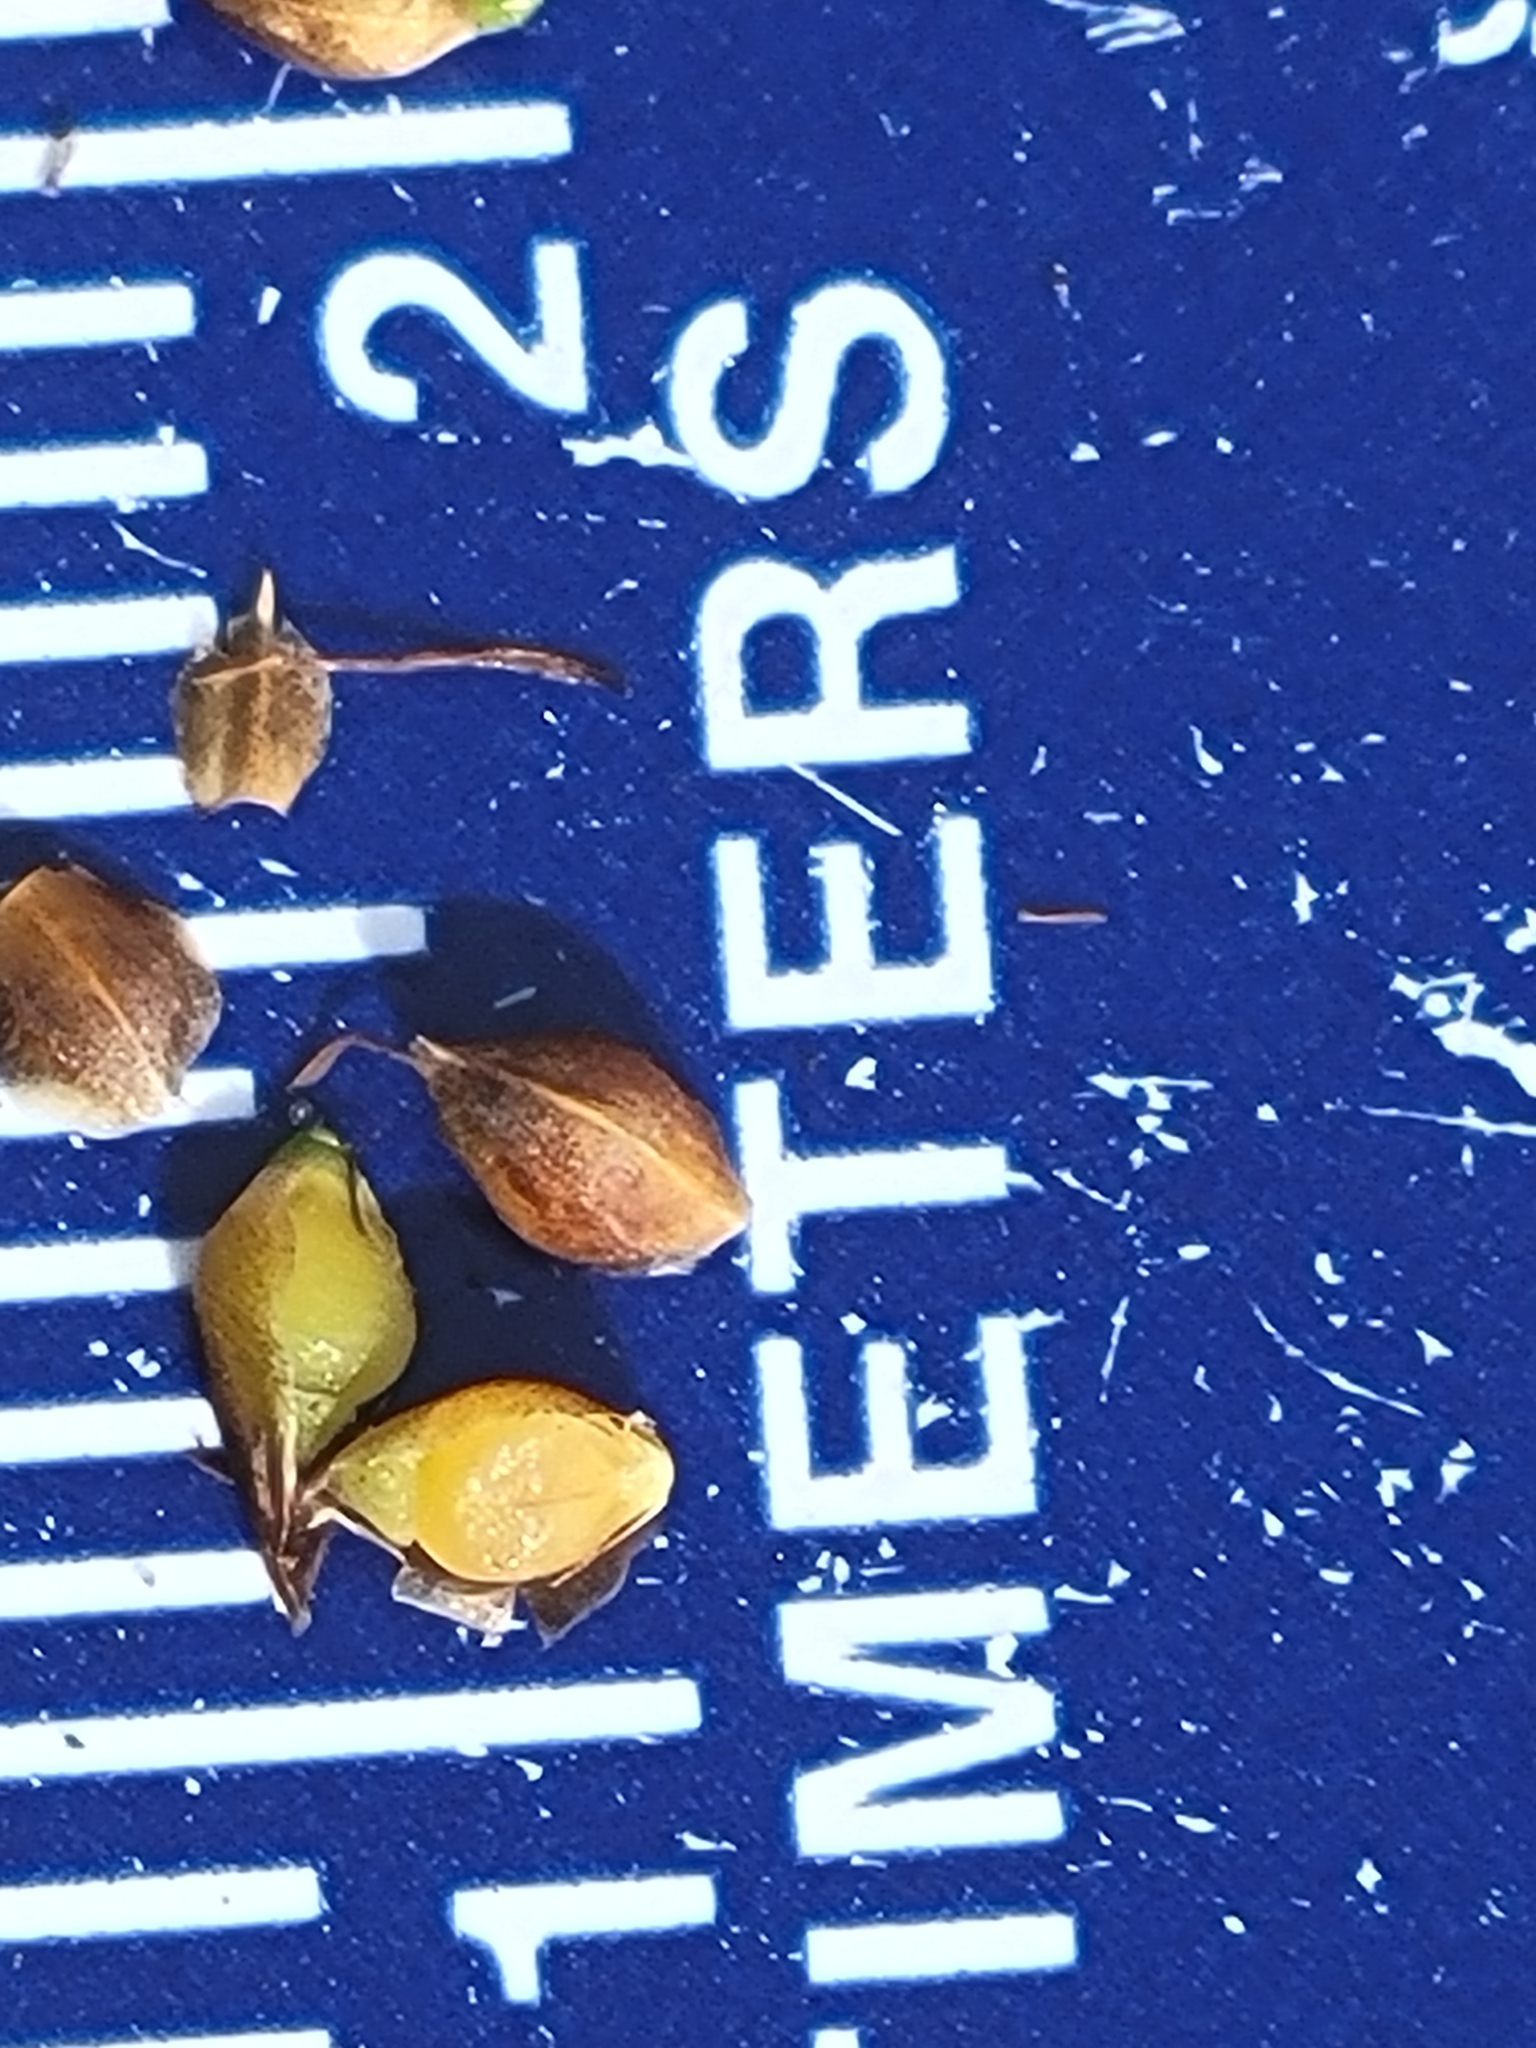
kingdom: Plantae
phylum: Tracheophyta
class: Liliopsida
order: Poales
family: Cyperaceae
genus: Rhynchospora
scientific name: Rhynchospora recognita
